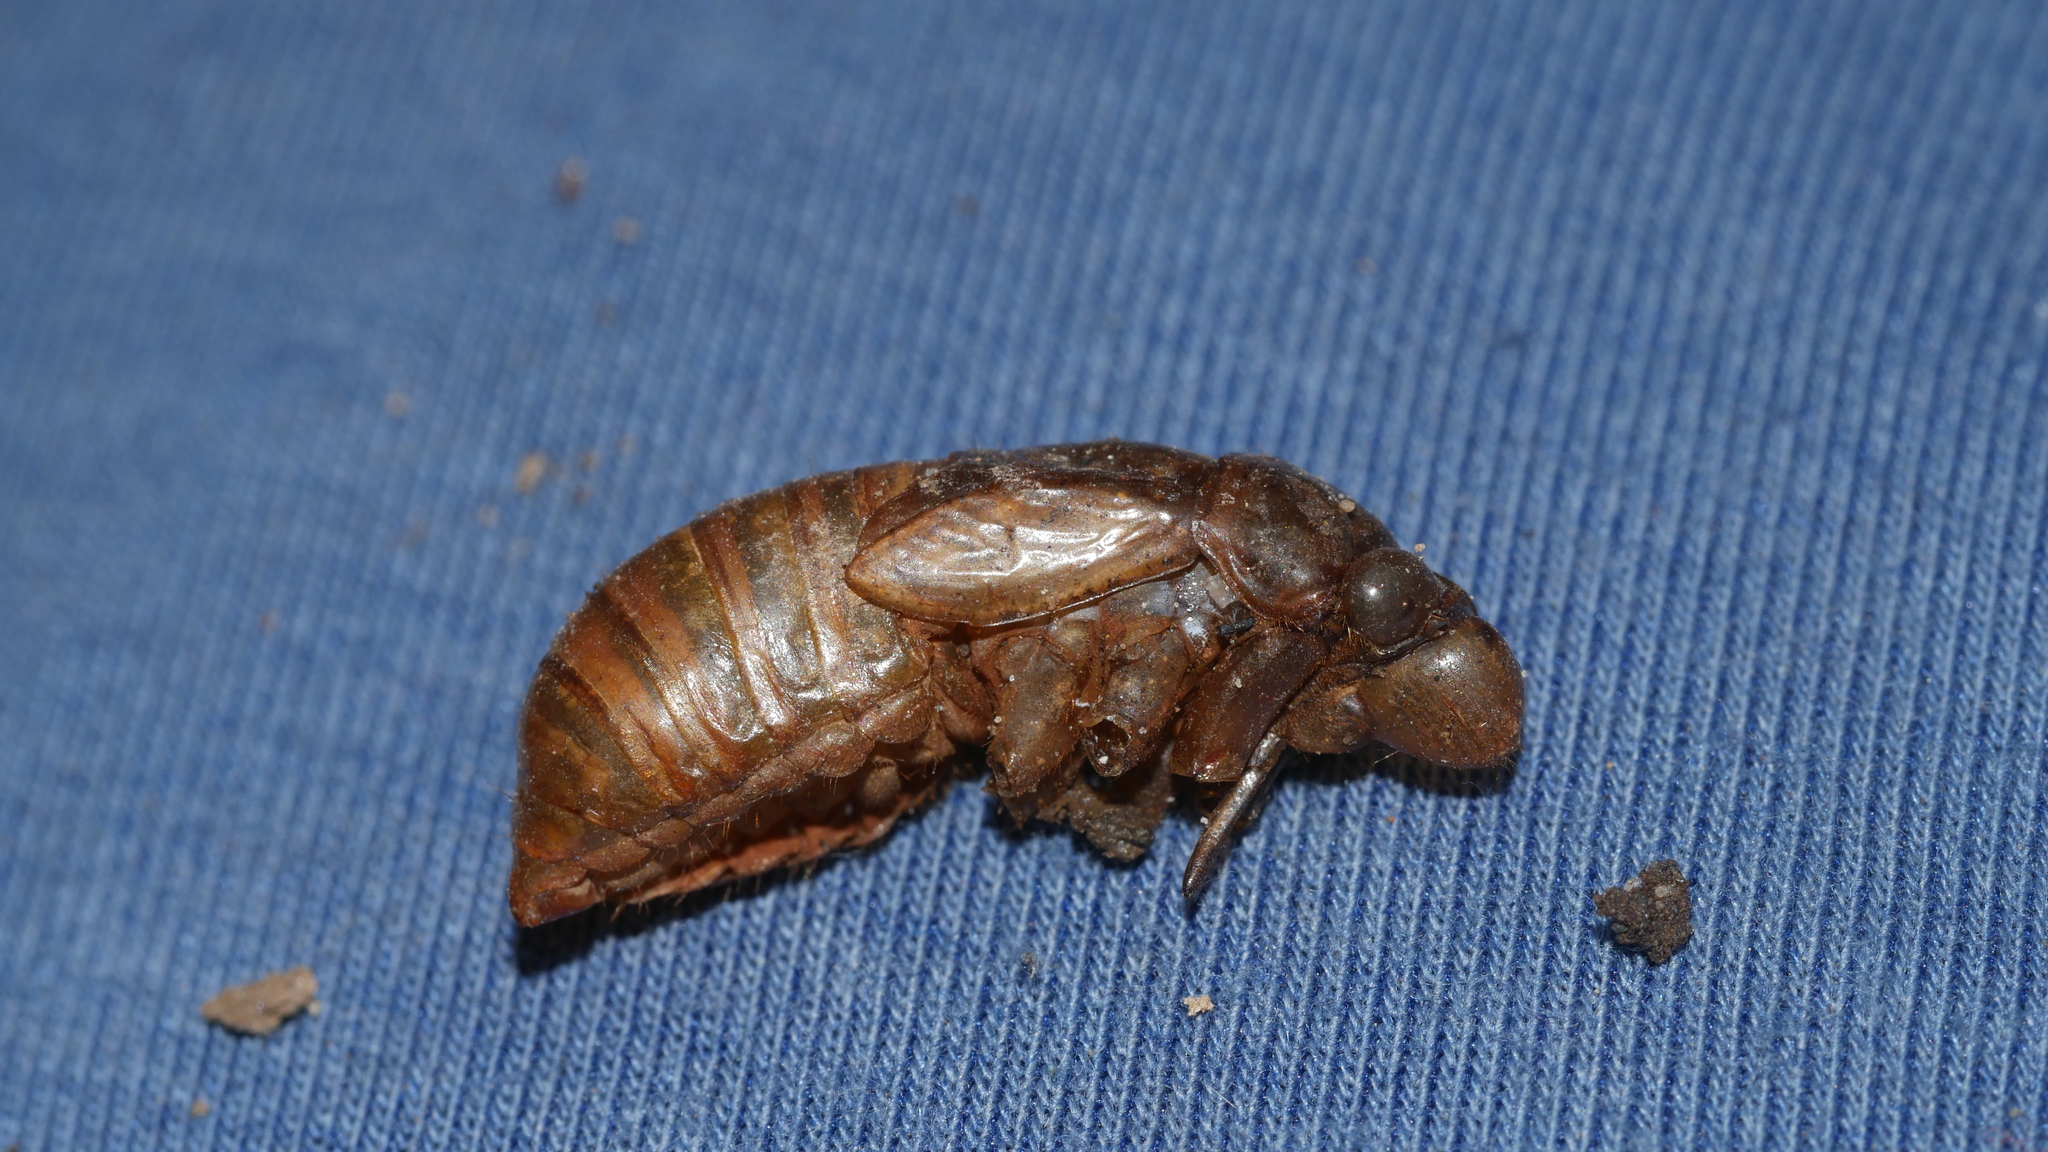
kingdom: Animalia
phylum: Arthropoda
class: Insecta
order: Hemiptera
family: Cicadidae
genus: Magicicada
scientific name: Magicicada
